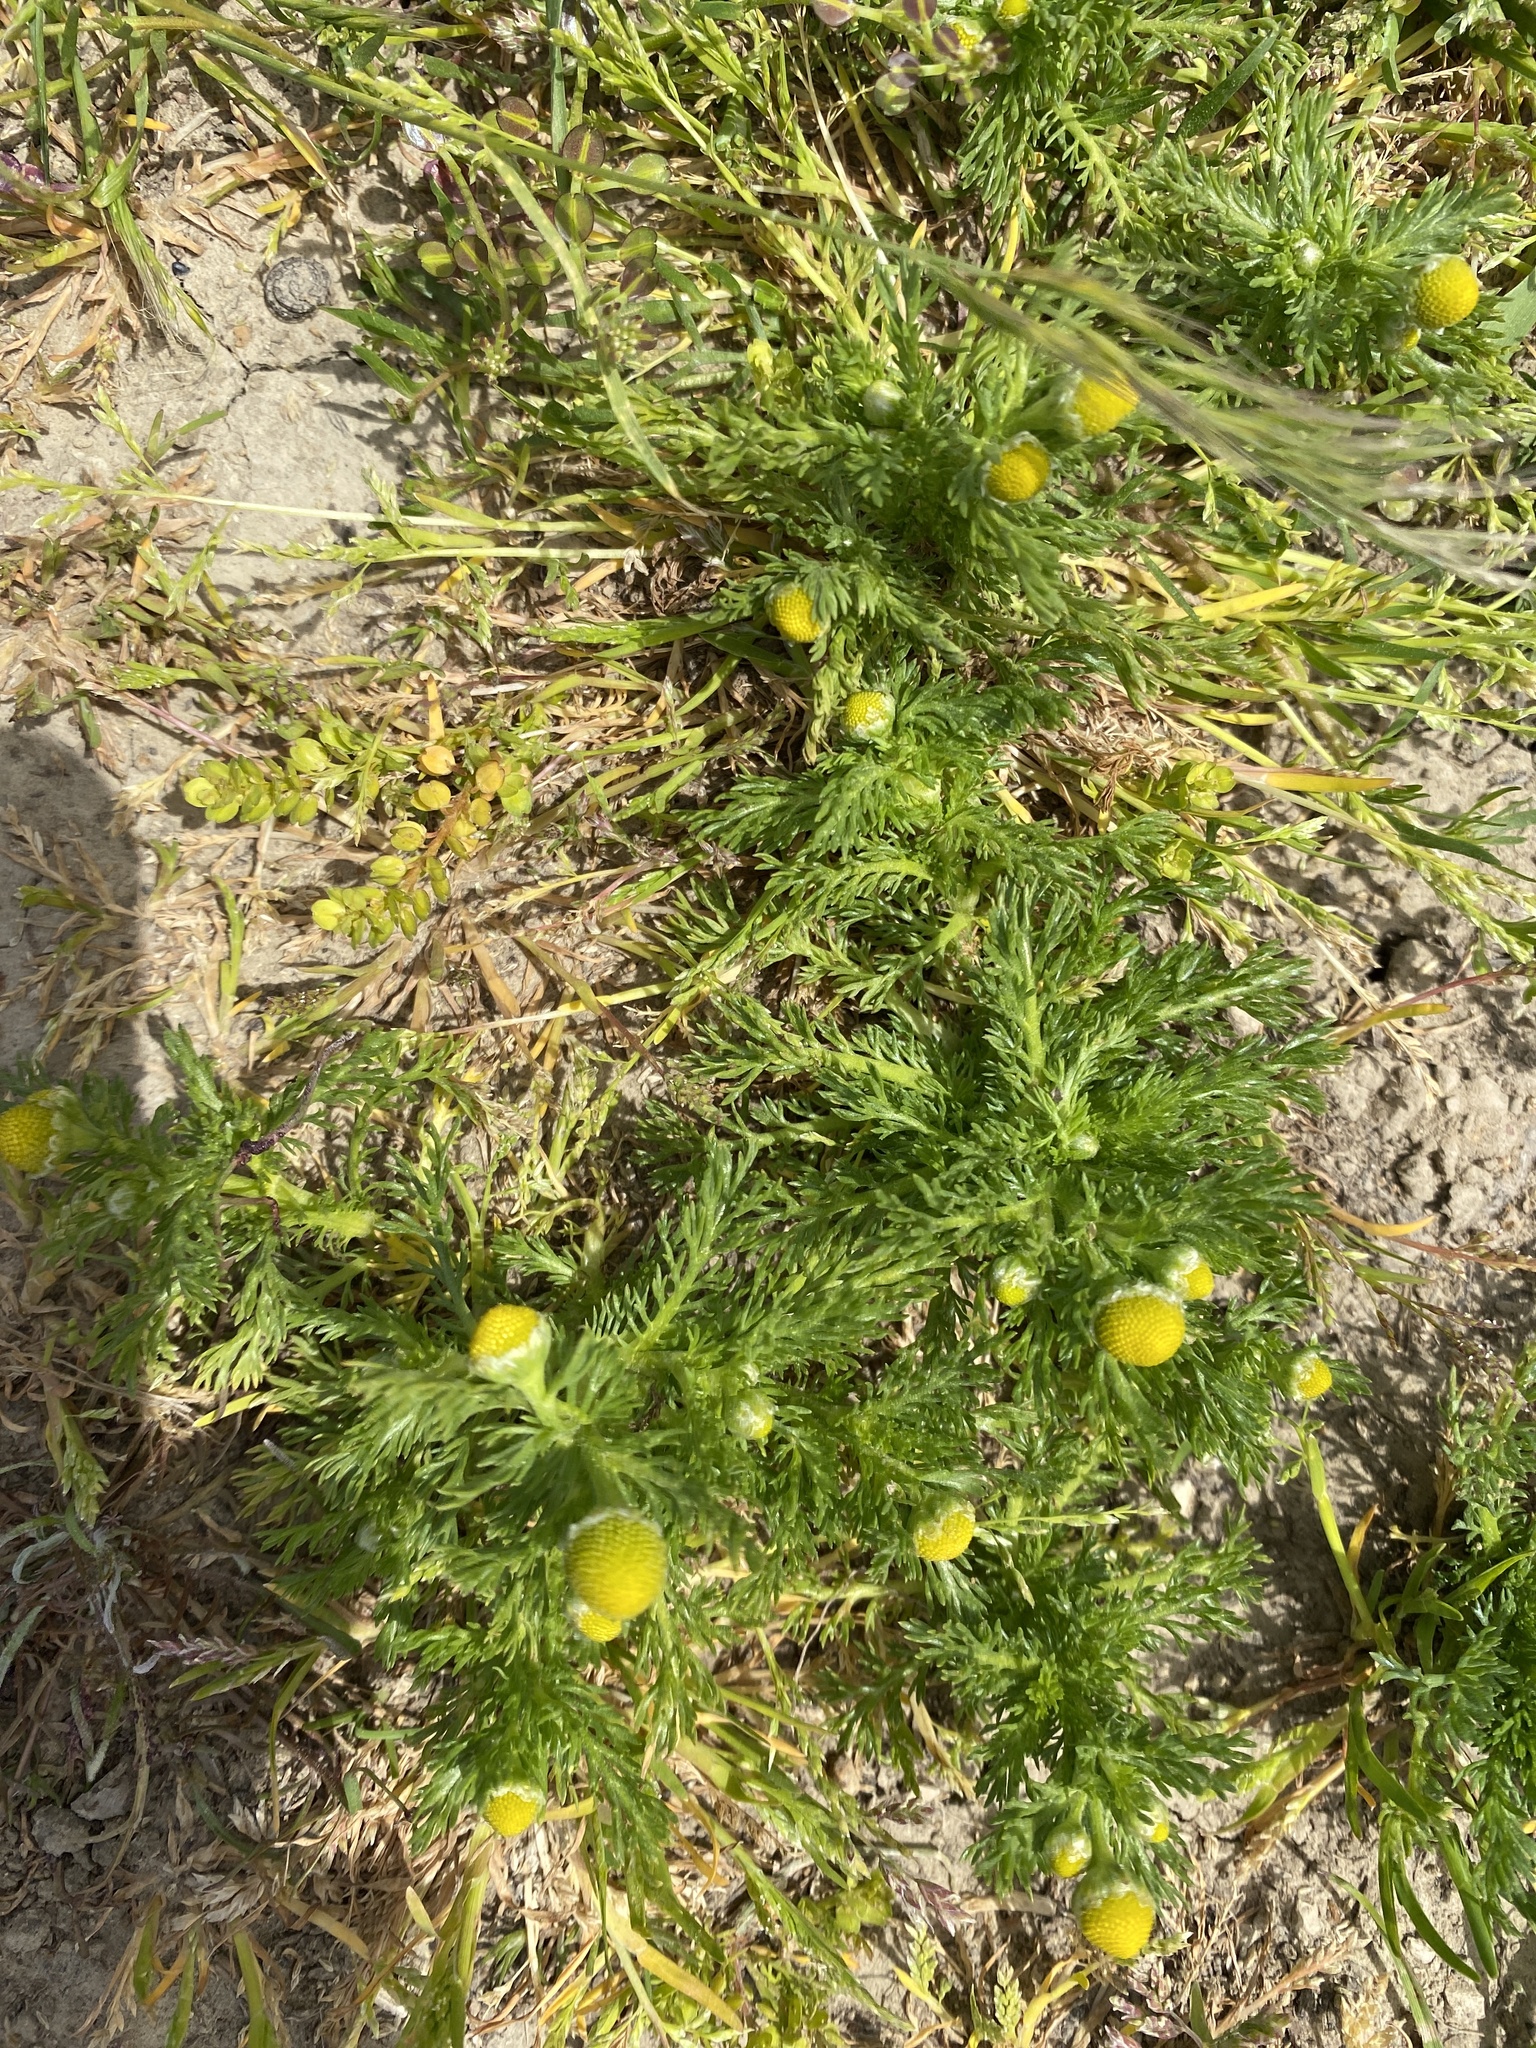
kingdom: Plantae
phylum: Tracheophyta
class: Magnoliopsida
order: Asterales
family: Asteraceae
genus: Matricaria
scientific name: Matricaria discoidea
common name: Disc mayweed
